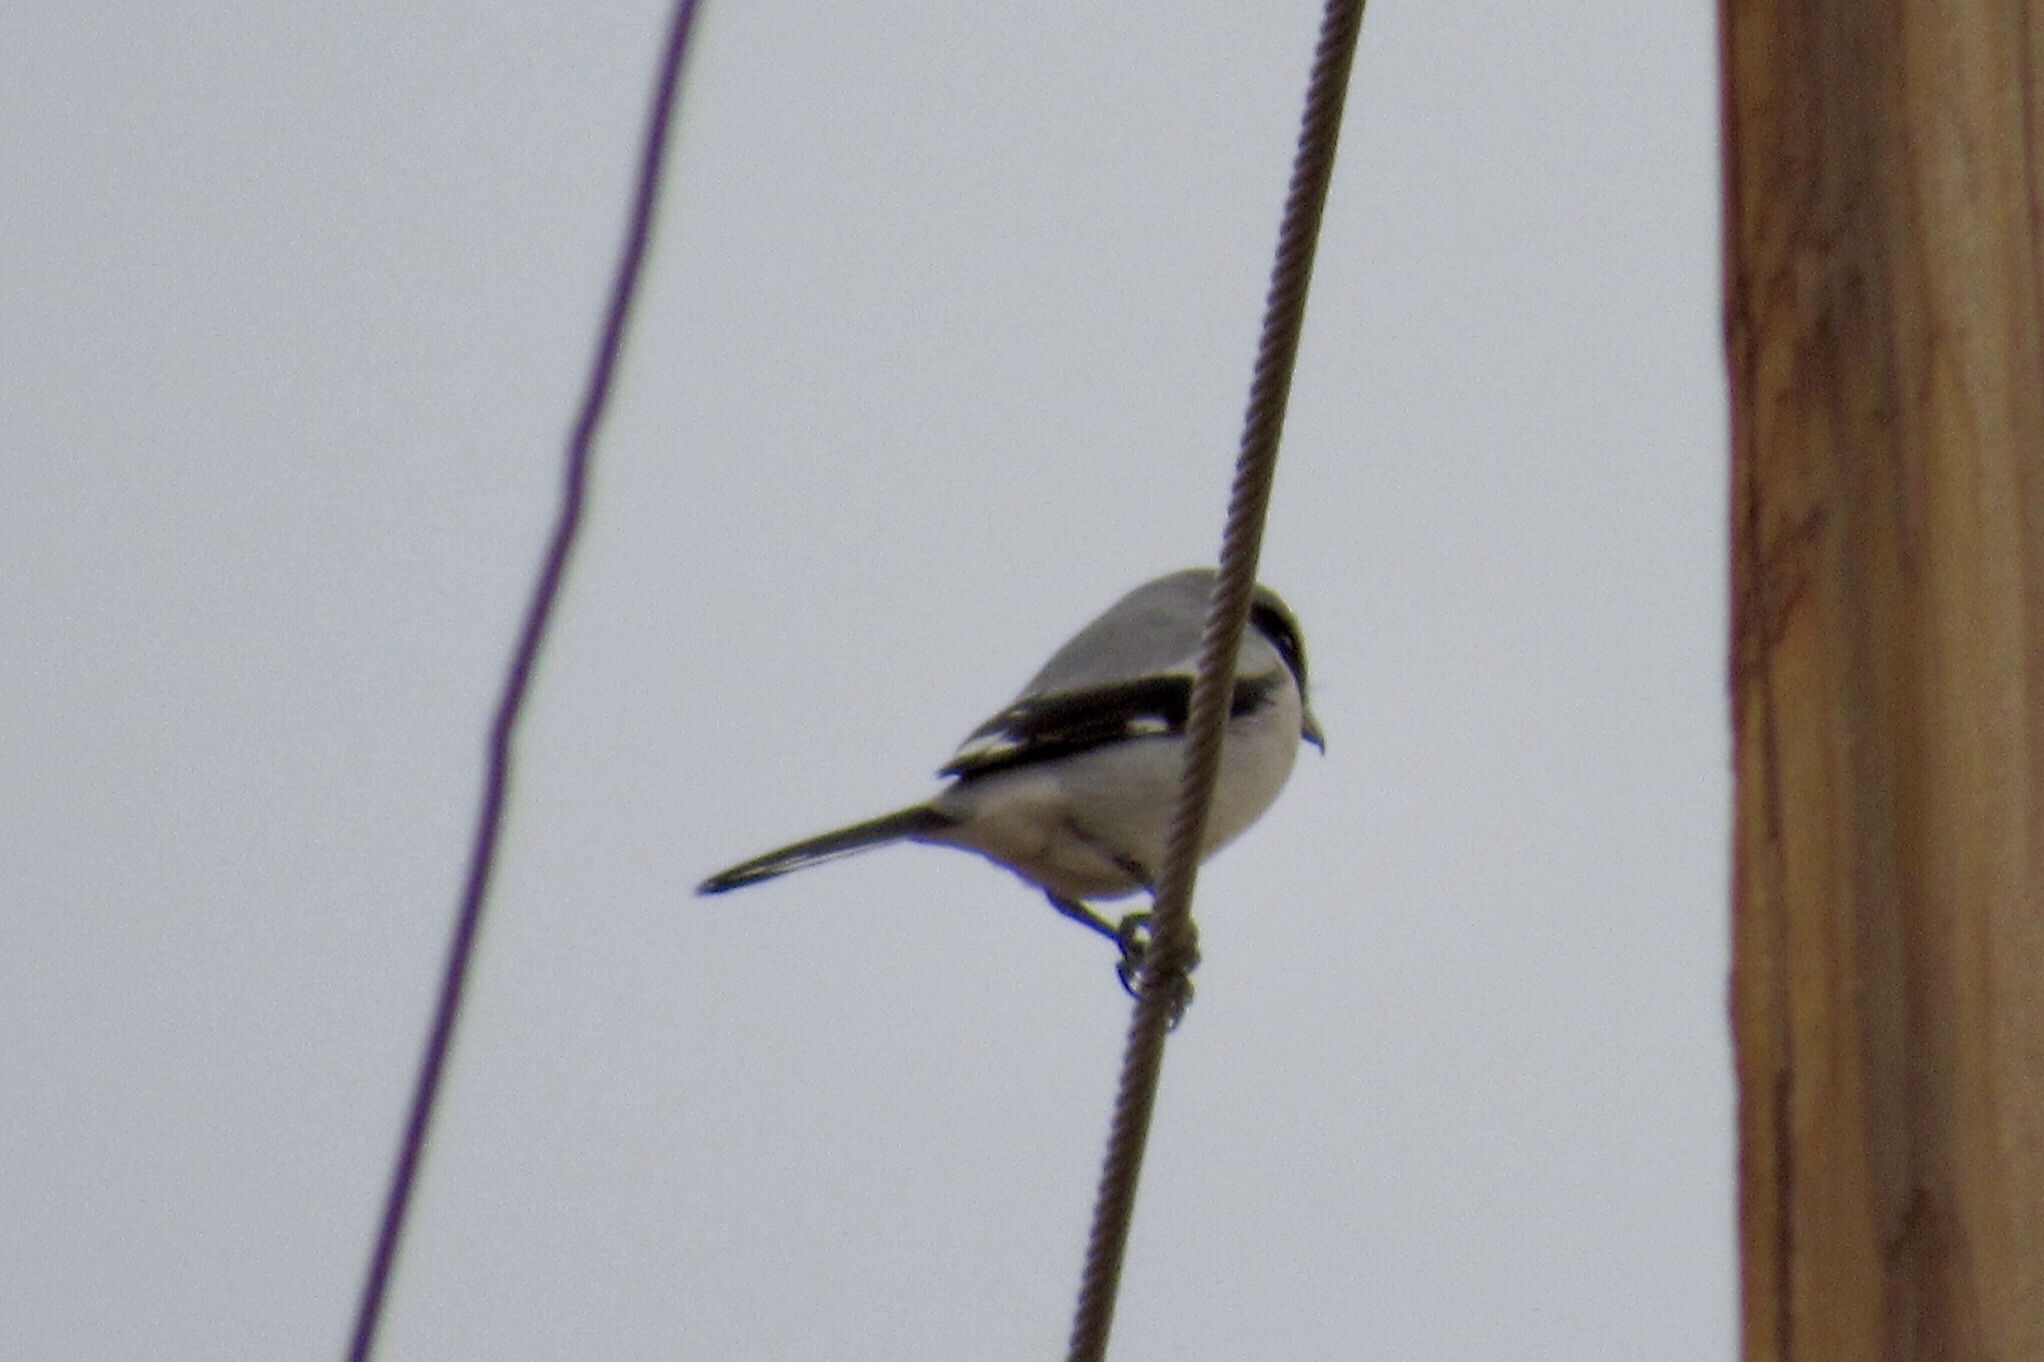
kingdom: Animalia
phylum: Chordata
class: Aves
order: Passeriformes
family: Laniidae
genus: Lanius
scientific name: Lanius ludovicianus
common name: Loggerhead shrike
